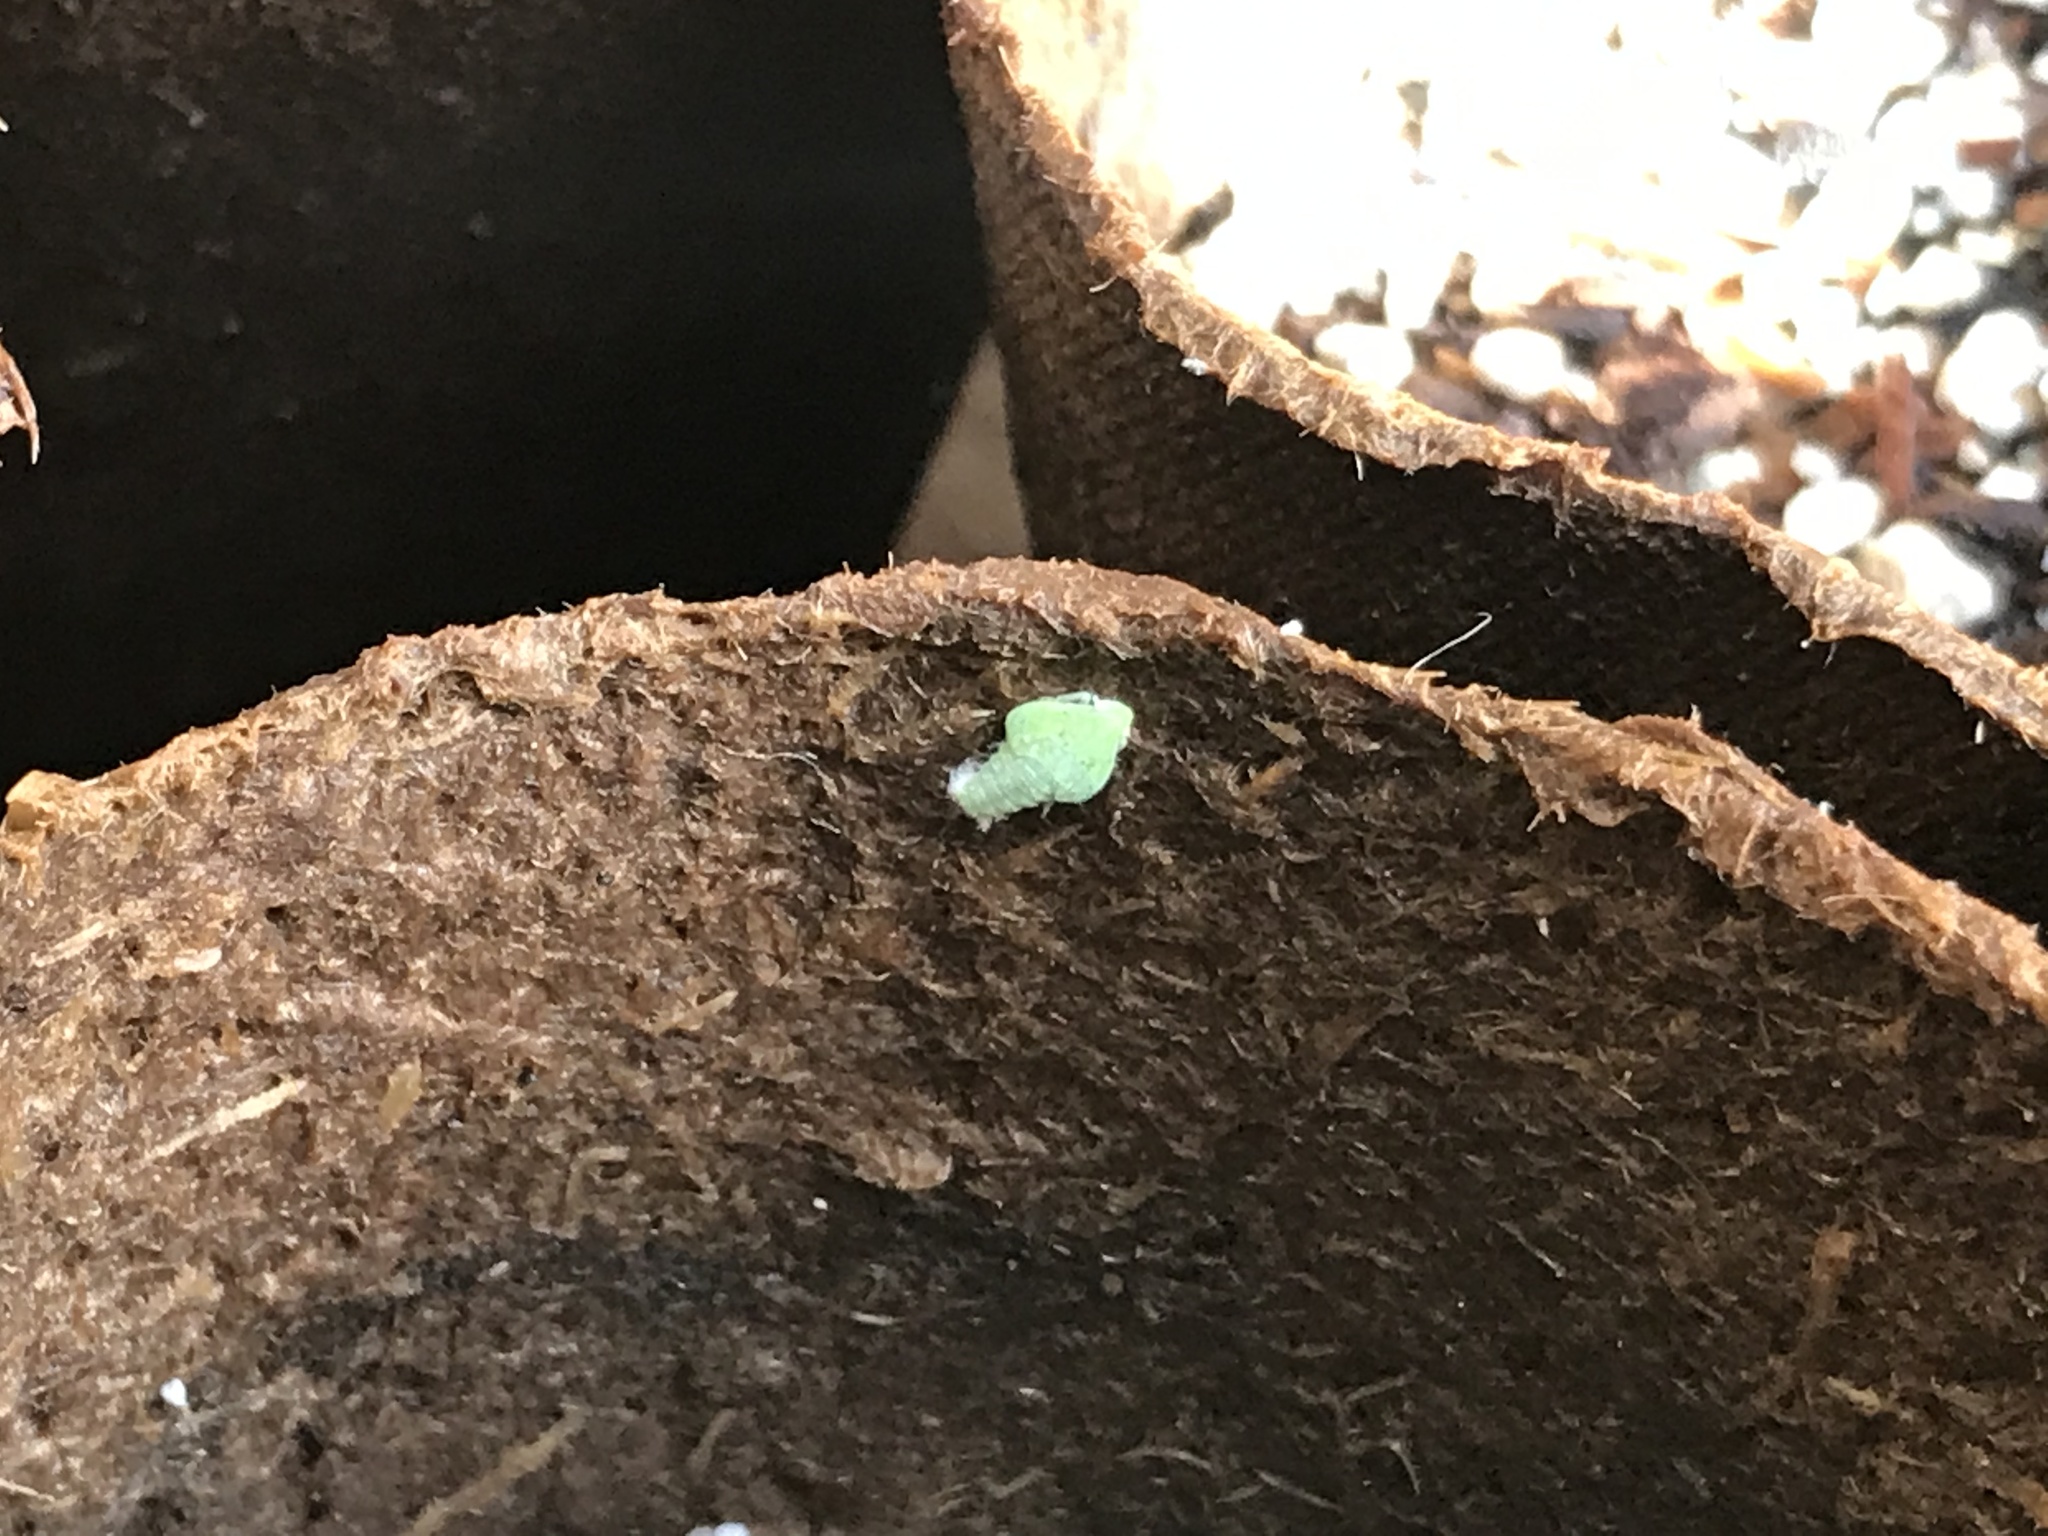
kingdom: Animalia
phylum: Arthropoda
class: Insecta
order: Hemiptera
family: Flatidae
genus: Siphanta
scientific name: Siphanta acuta
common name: Torpedo bug
